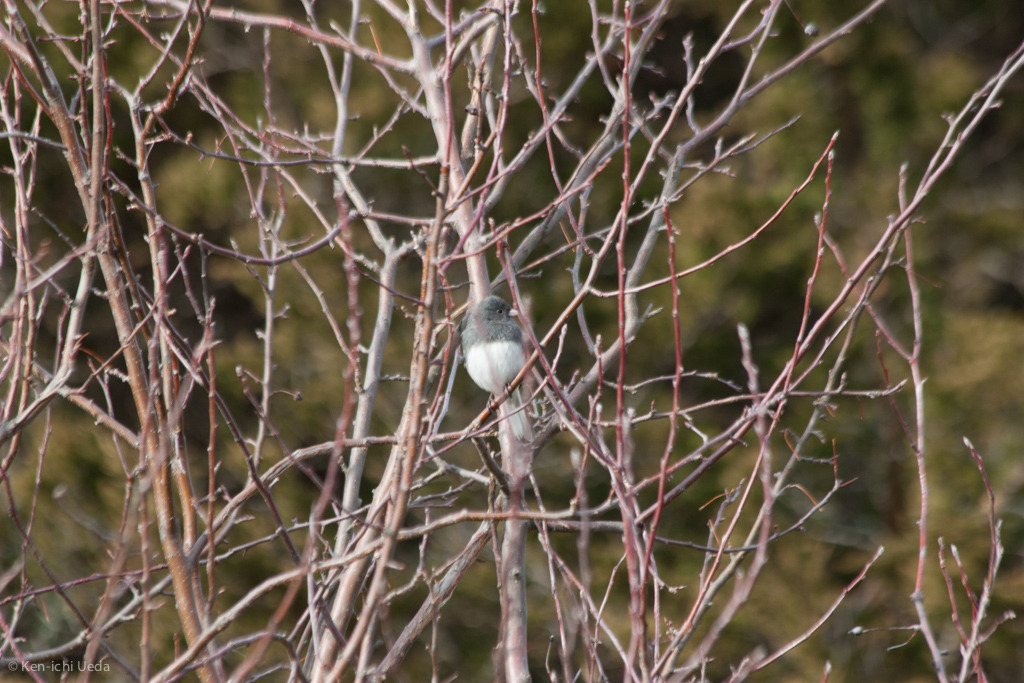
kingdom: Animalia
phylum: Chordata
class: Aves
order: Passeriformes
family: Passerellidae
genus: Junco
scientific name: Junco hyemalis
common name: Dark-eyed junco
